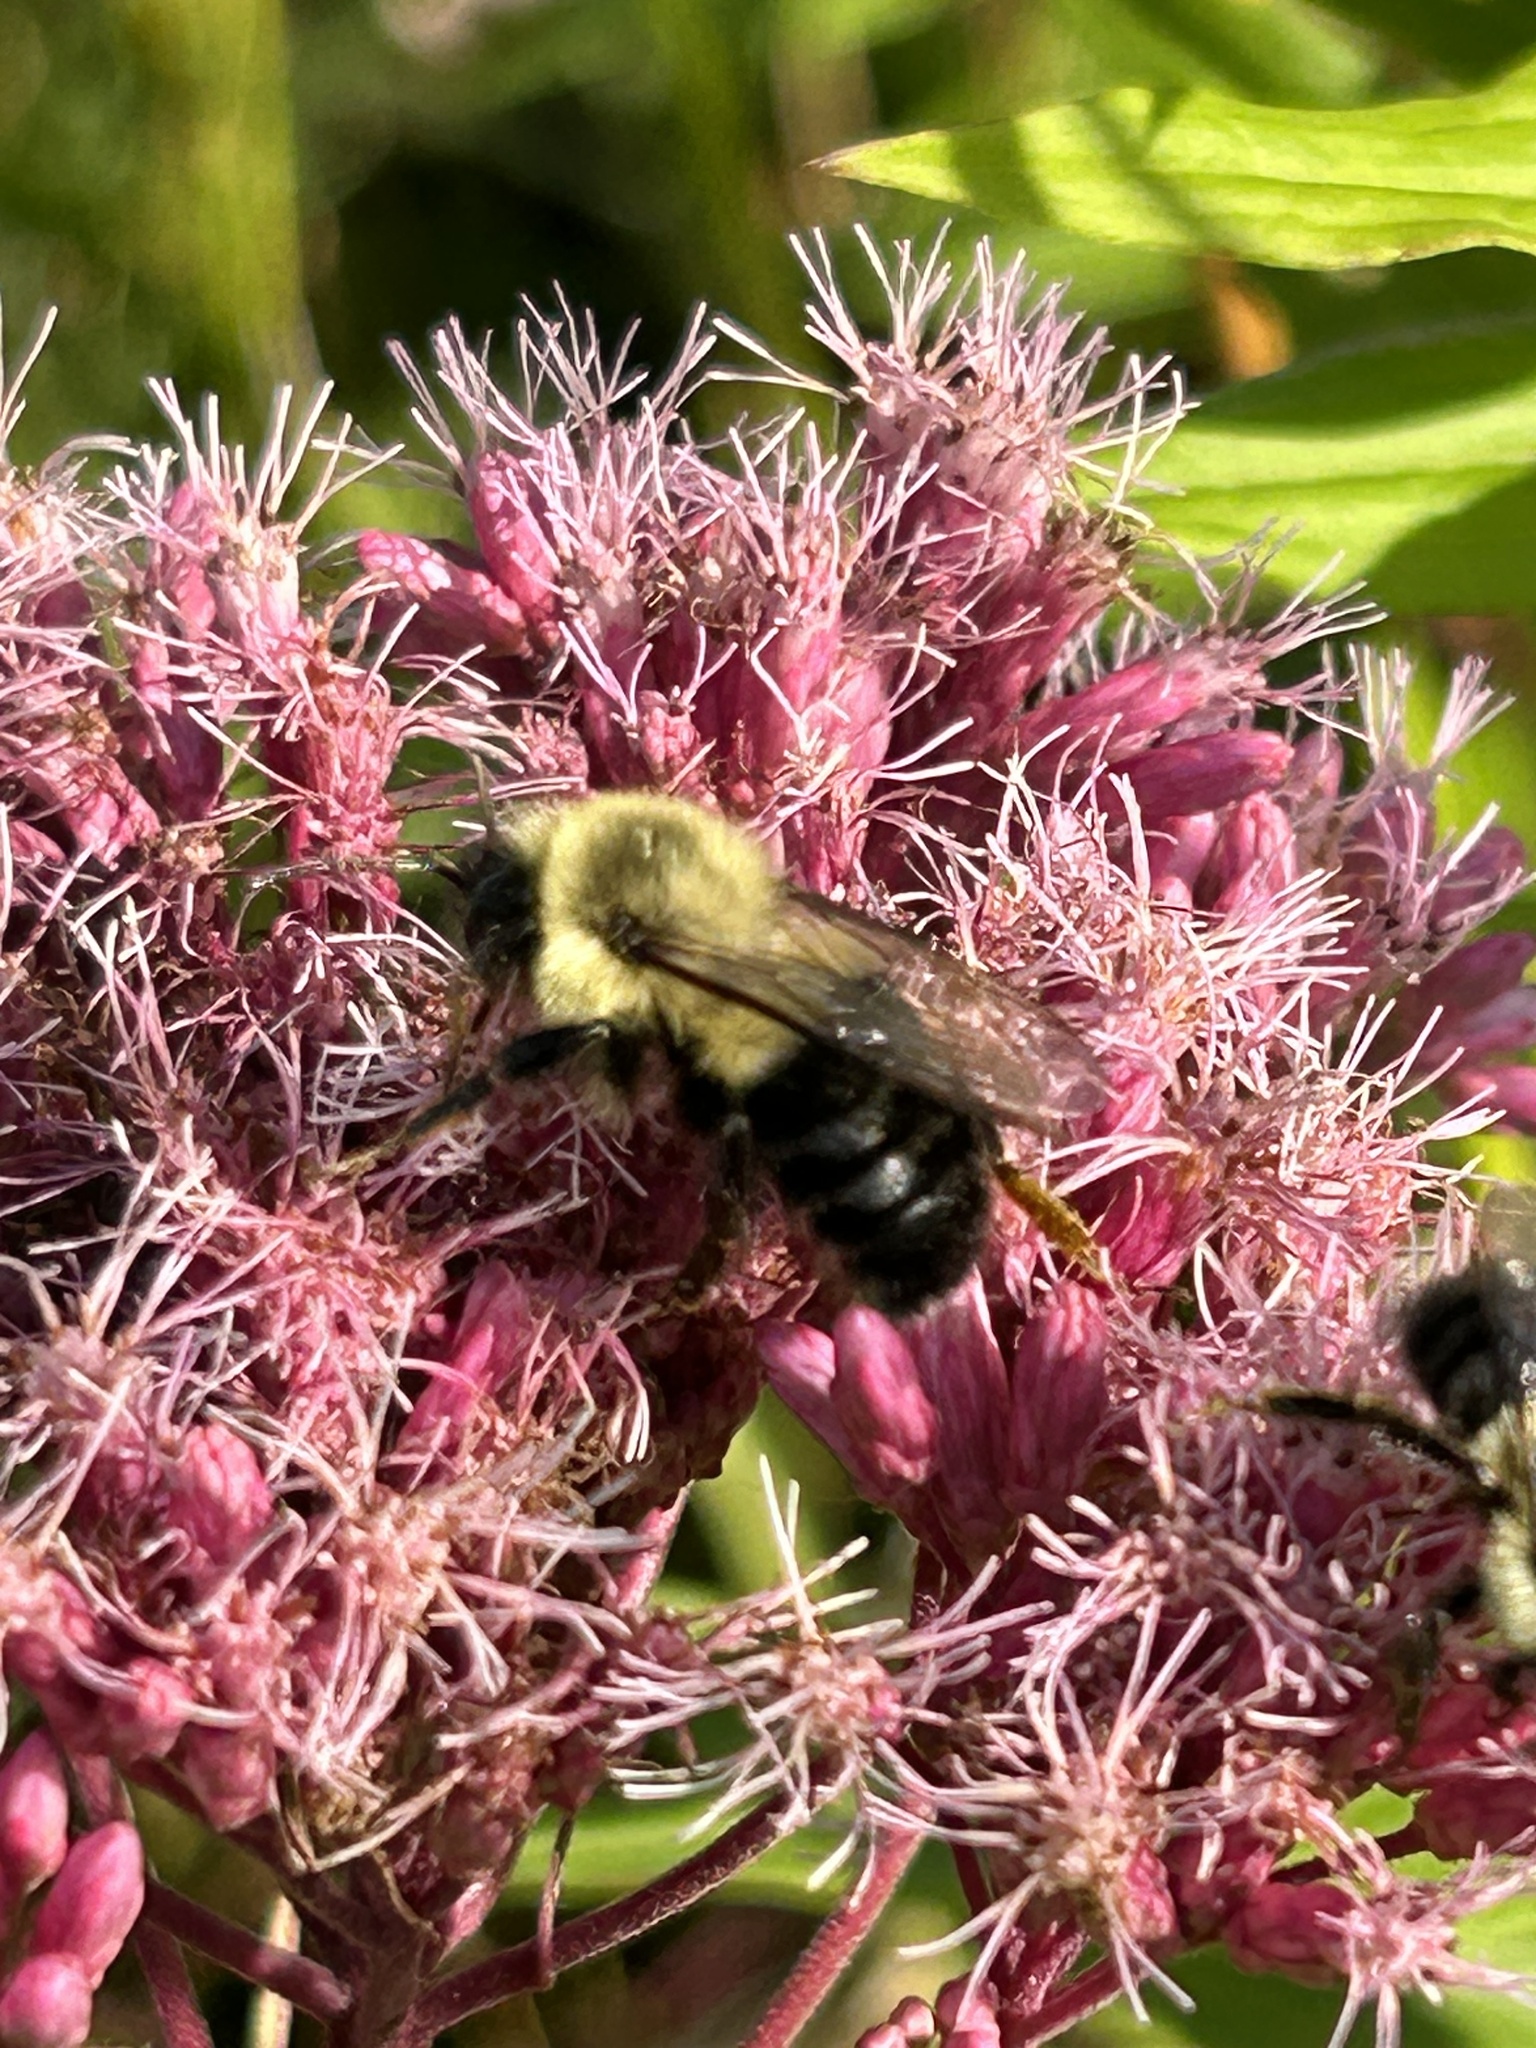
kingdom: Animalia
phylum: Arthropoda
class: Insecta
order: Hymenoptera
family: Apidae
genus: Bombus
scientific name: Bombus impatiens
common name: Common eastern bumble bee
